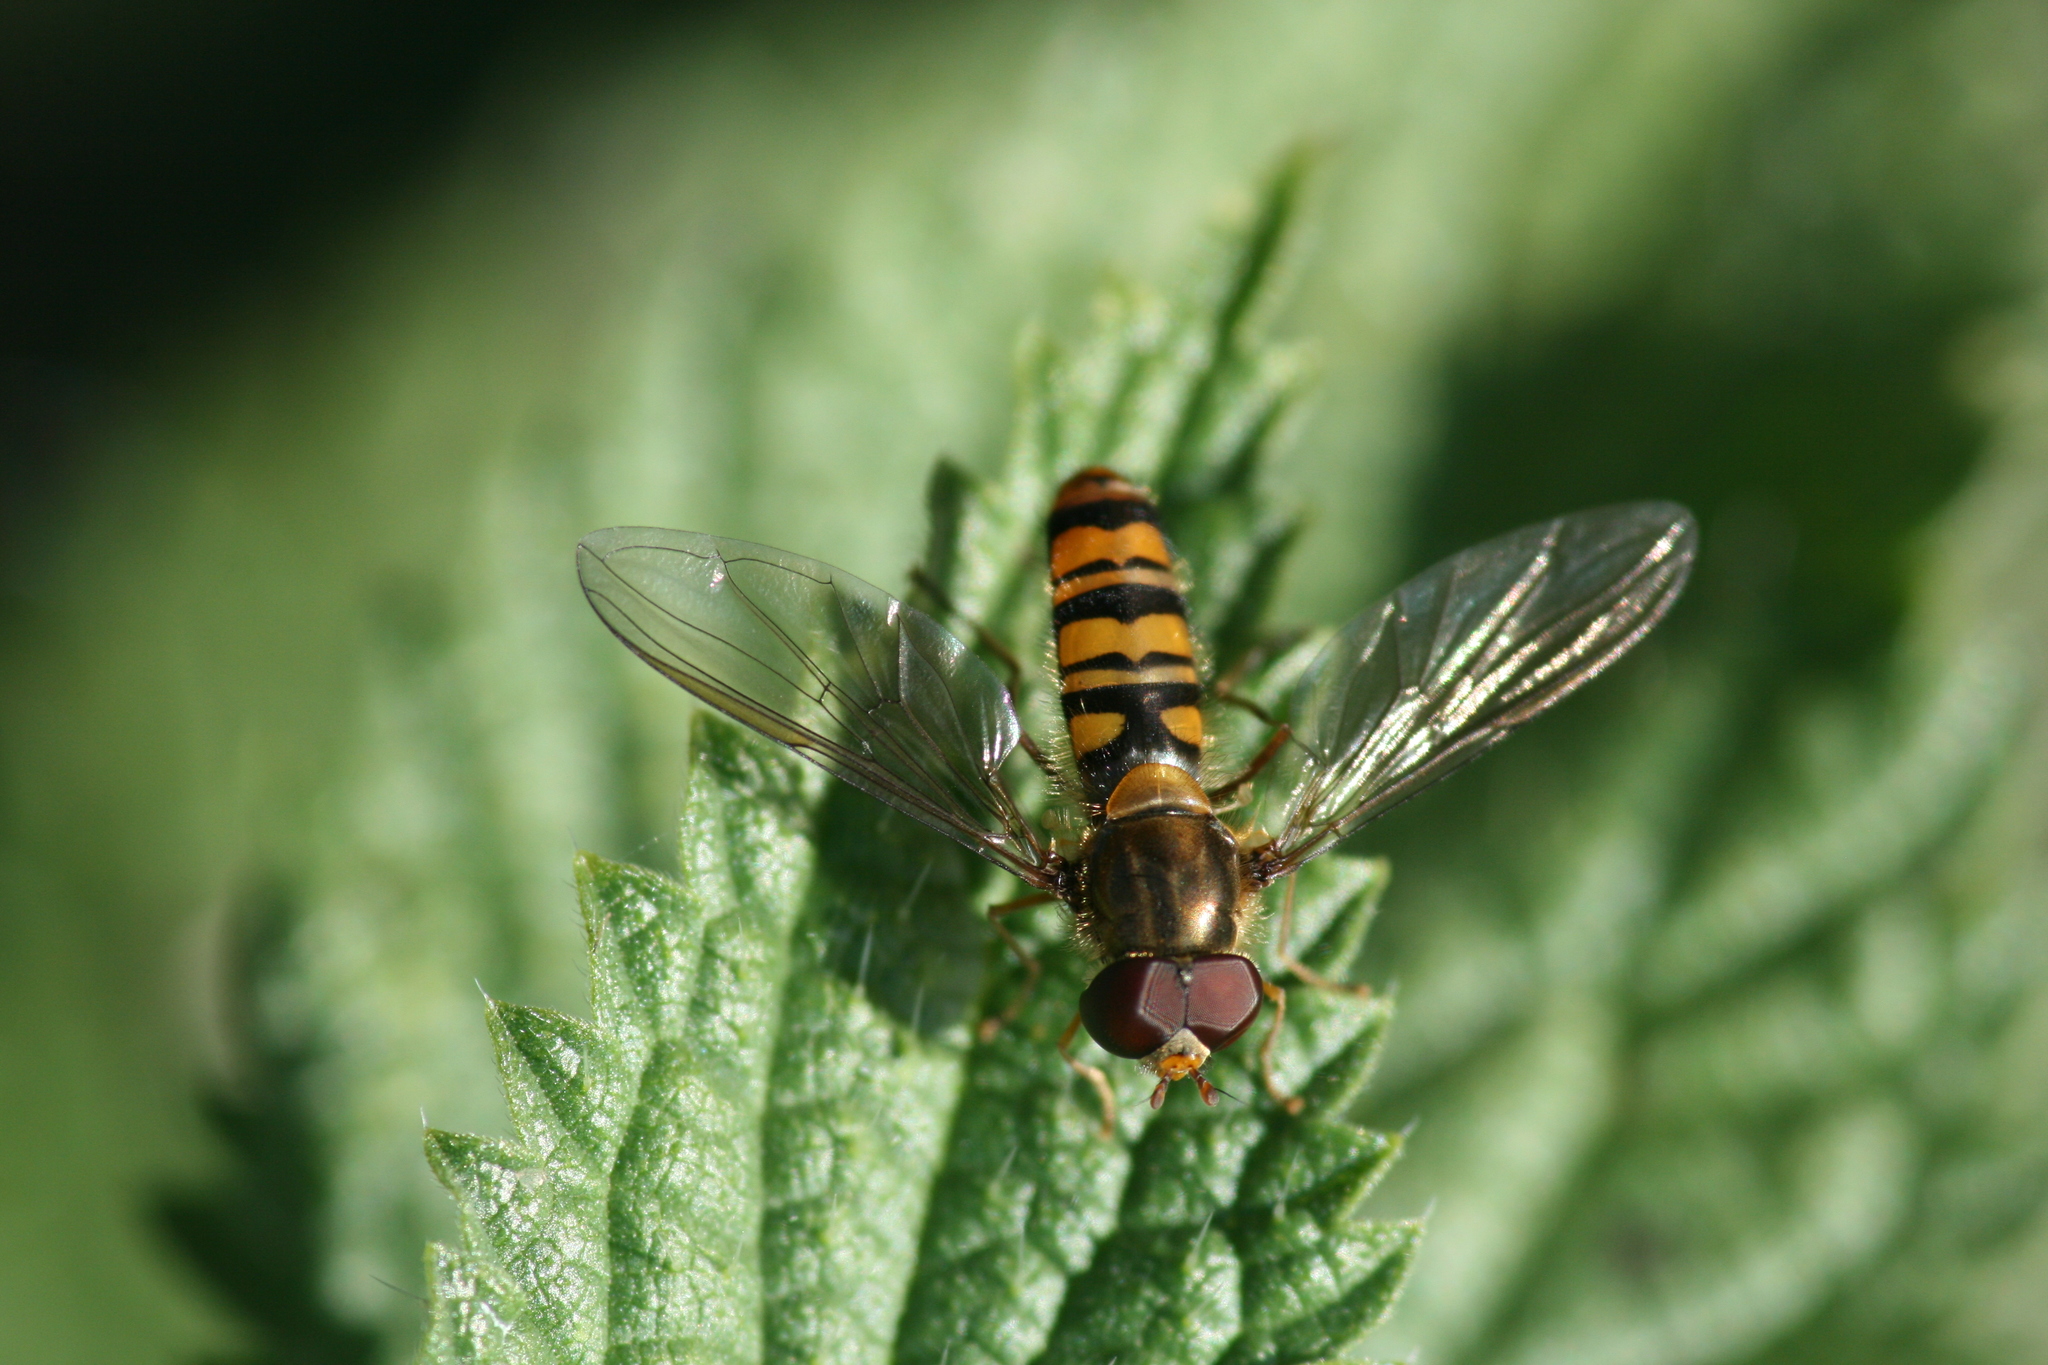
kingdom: Animalia
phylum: Arthropoda
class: Insecta
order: Diptera
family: Syrphidae
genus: Episyrphus
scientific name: Episyrphus balteatus
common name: Marmalade hoverfly
